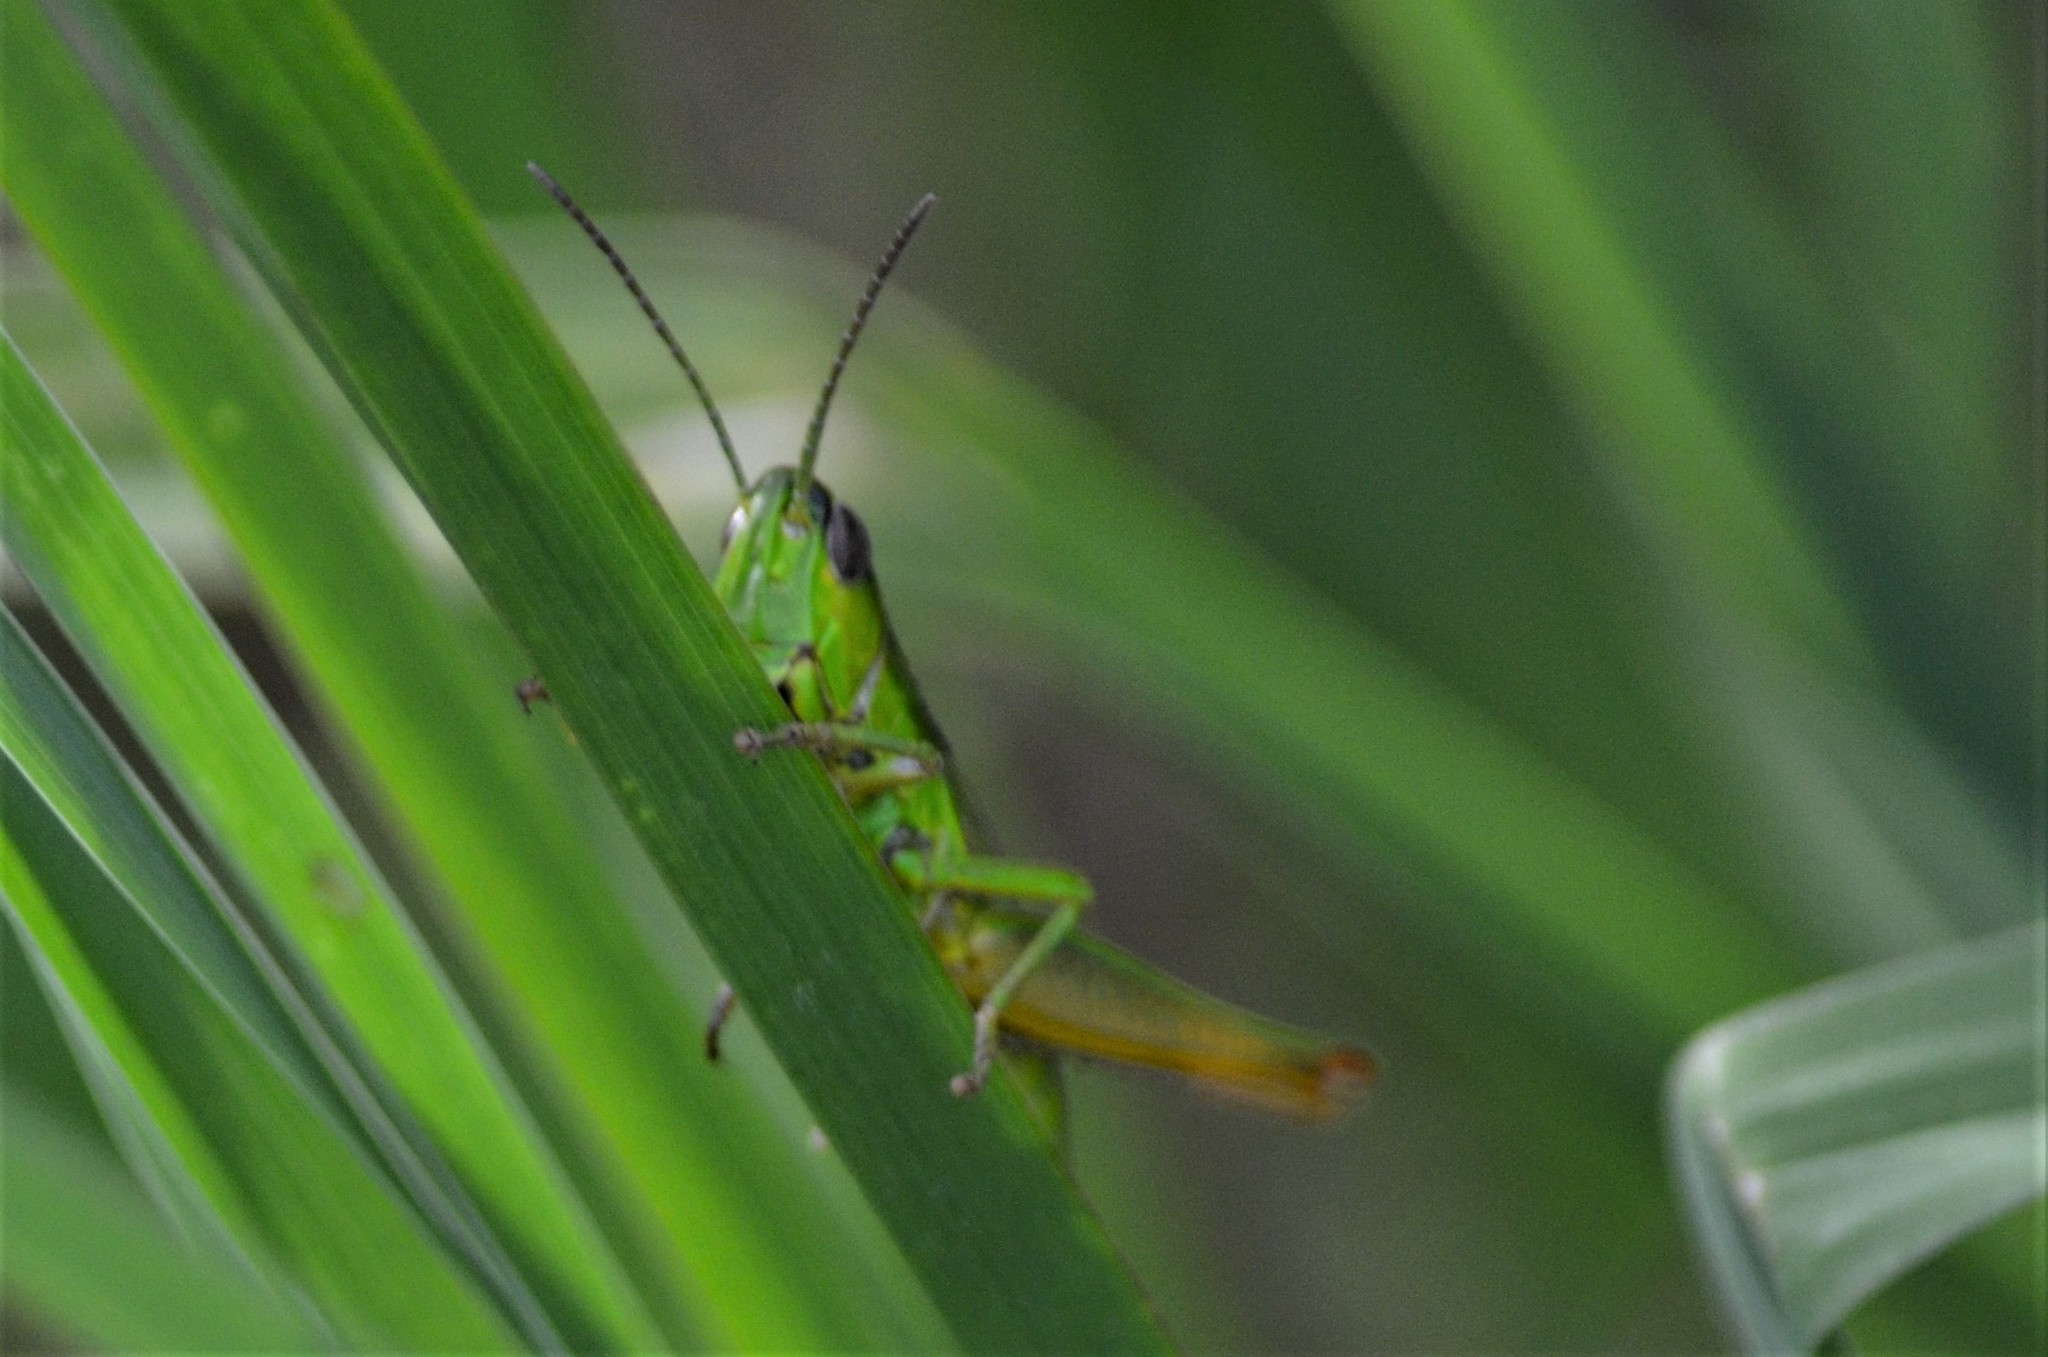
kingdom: Animalia
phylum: Arthropoda
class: Insecta
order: Orthoptera
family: Acrididae
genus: Euthystira
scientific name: Euthystira brachyptera
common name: Small gold grasshopper
